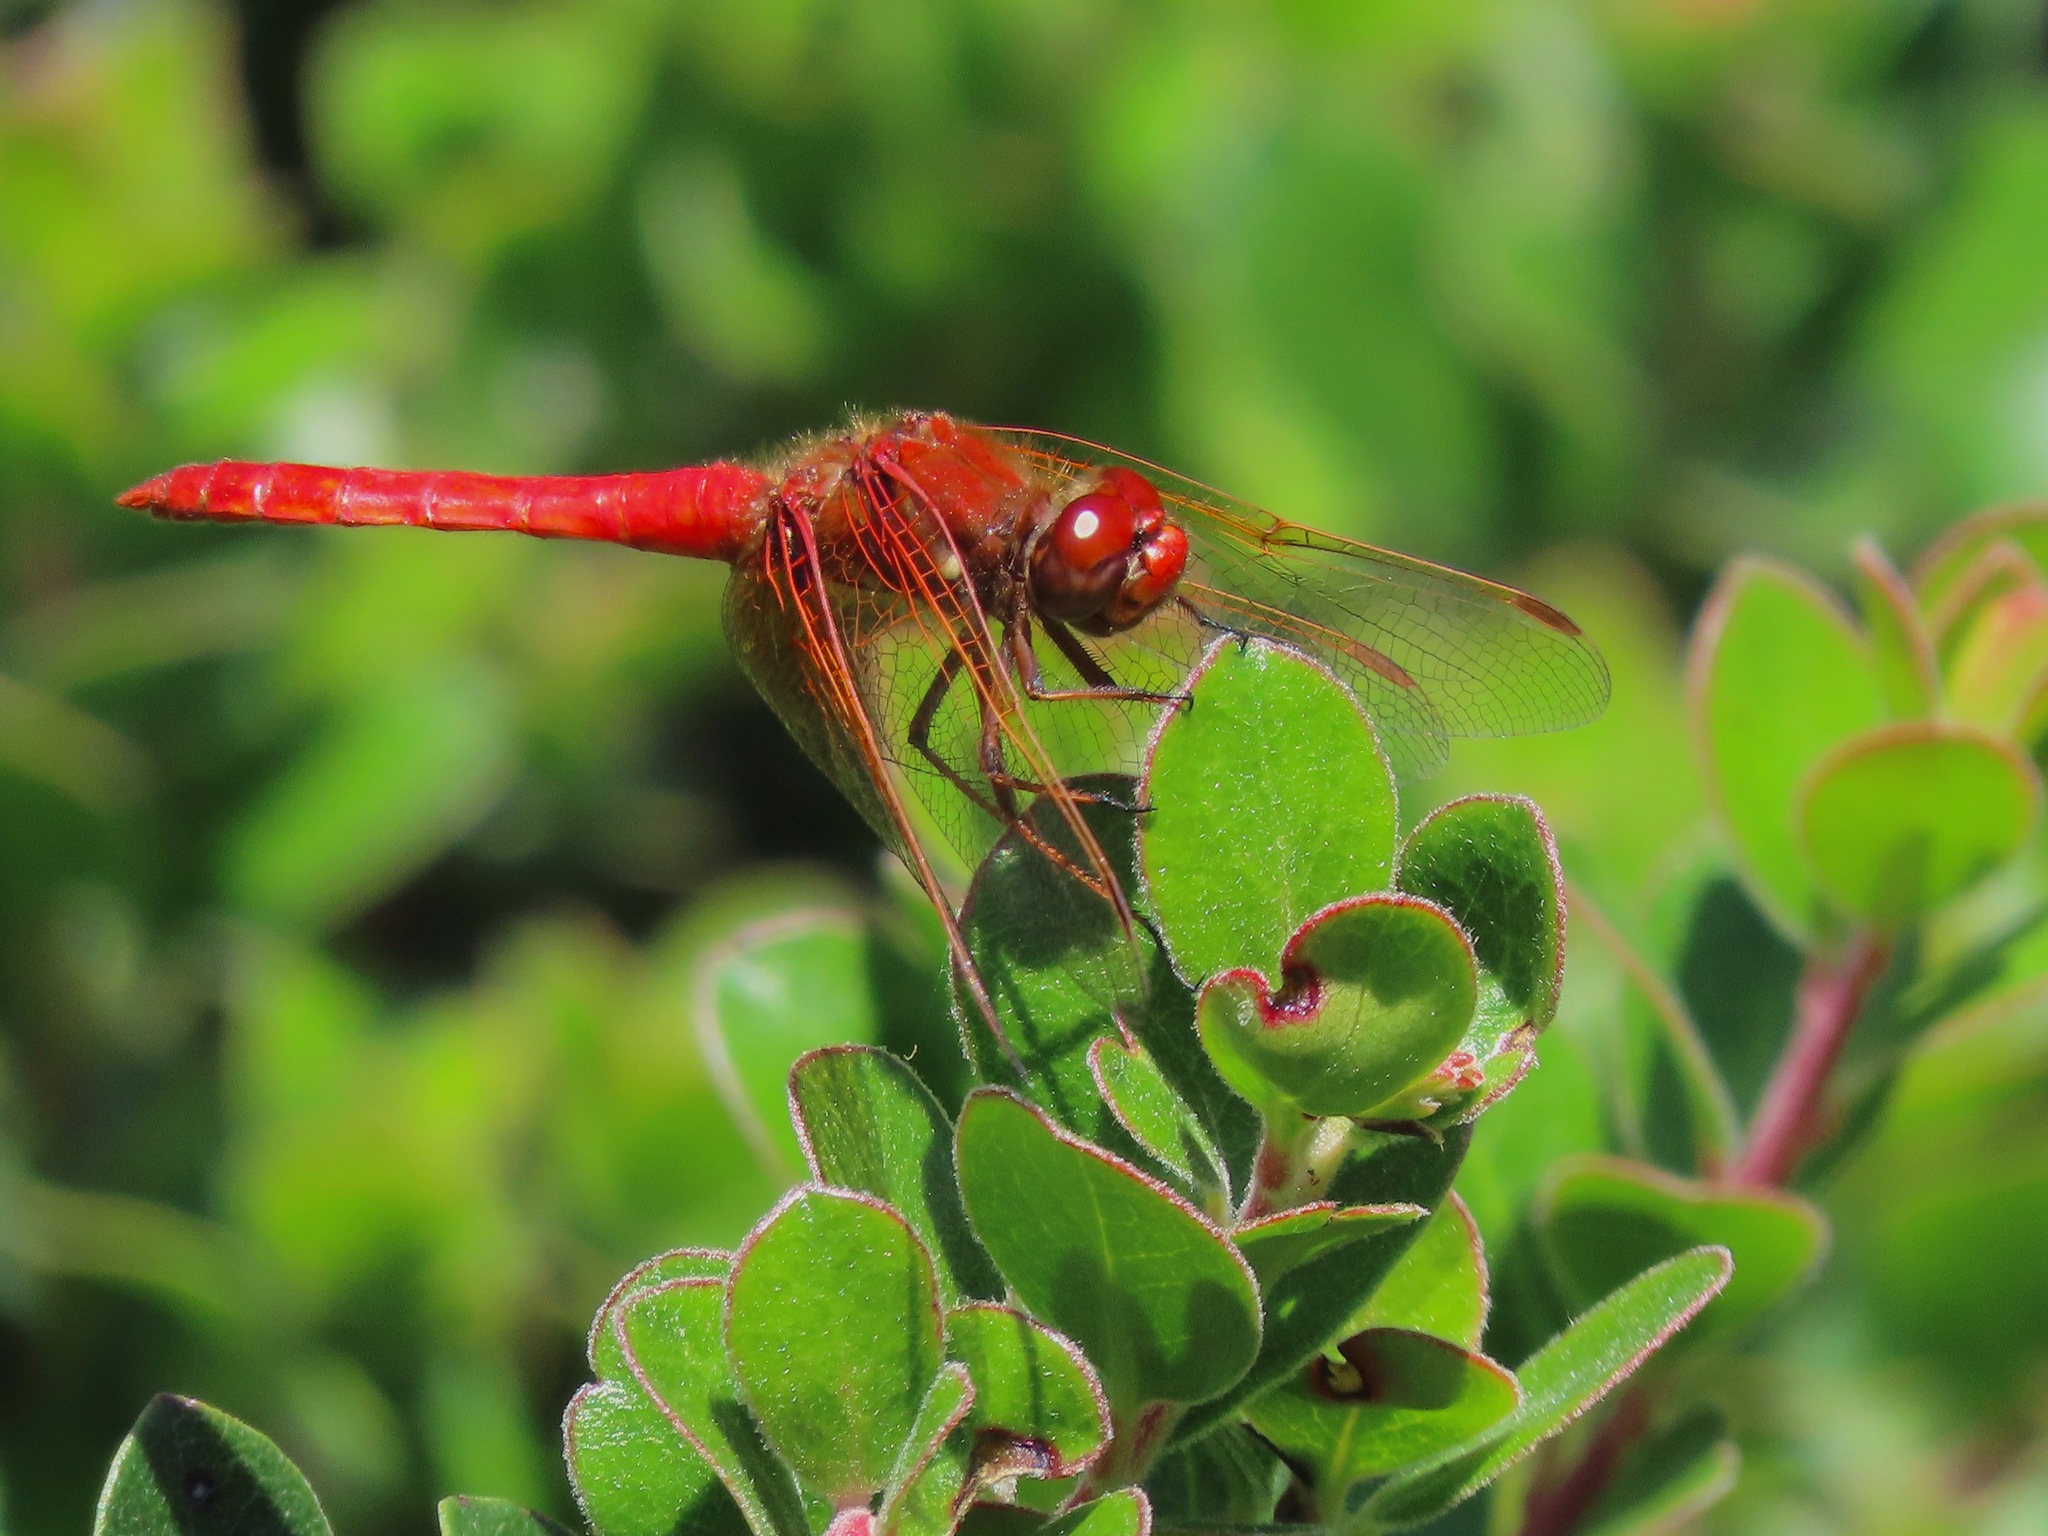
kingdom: Animalia
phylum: Arthropoda
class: Insecta
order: Odonata
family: Libellulidae
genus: Sympetrum
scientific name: Sympetrum illotum
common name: Cardinal meadowhawk
